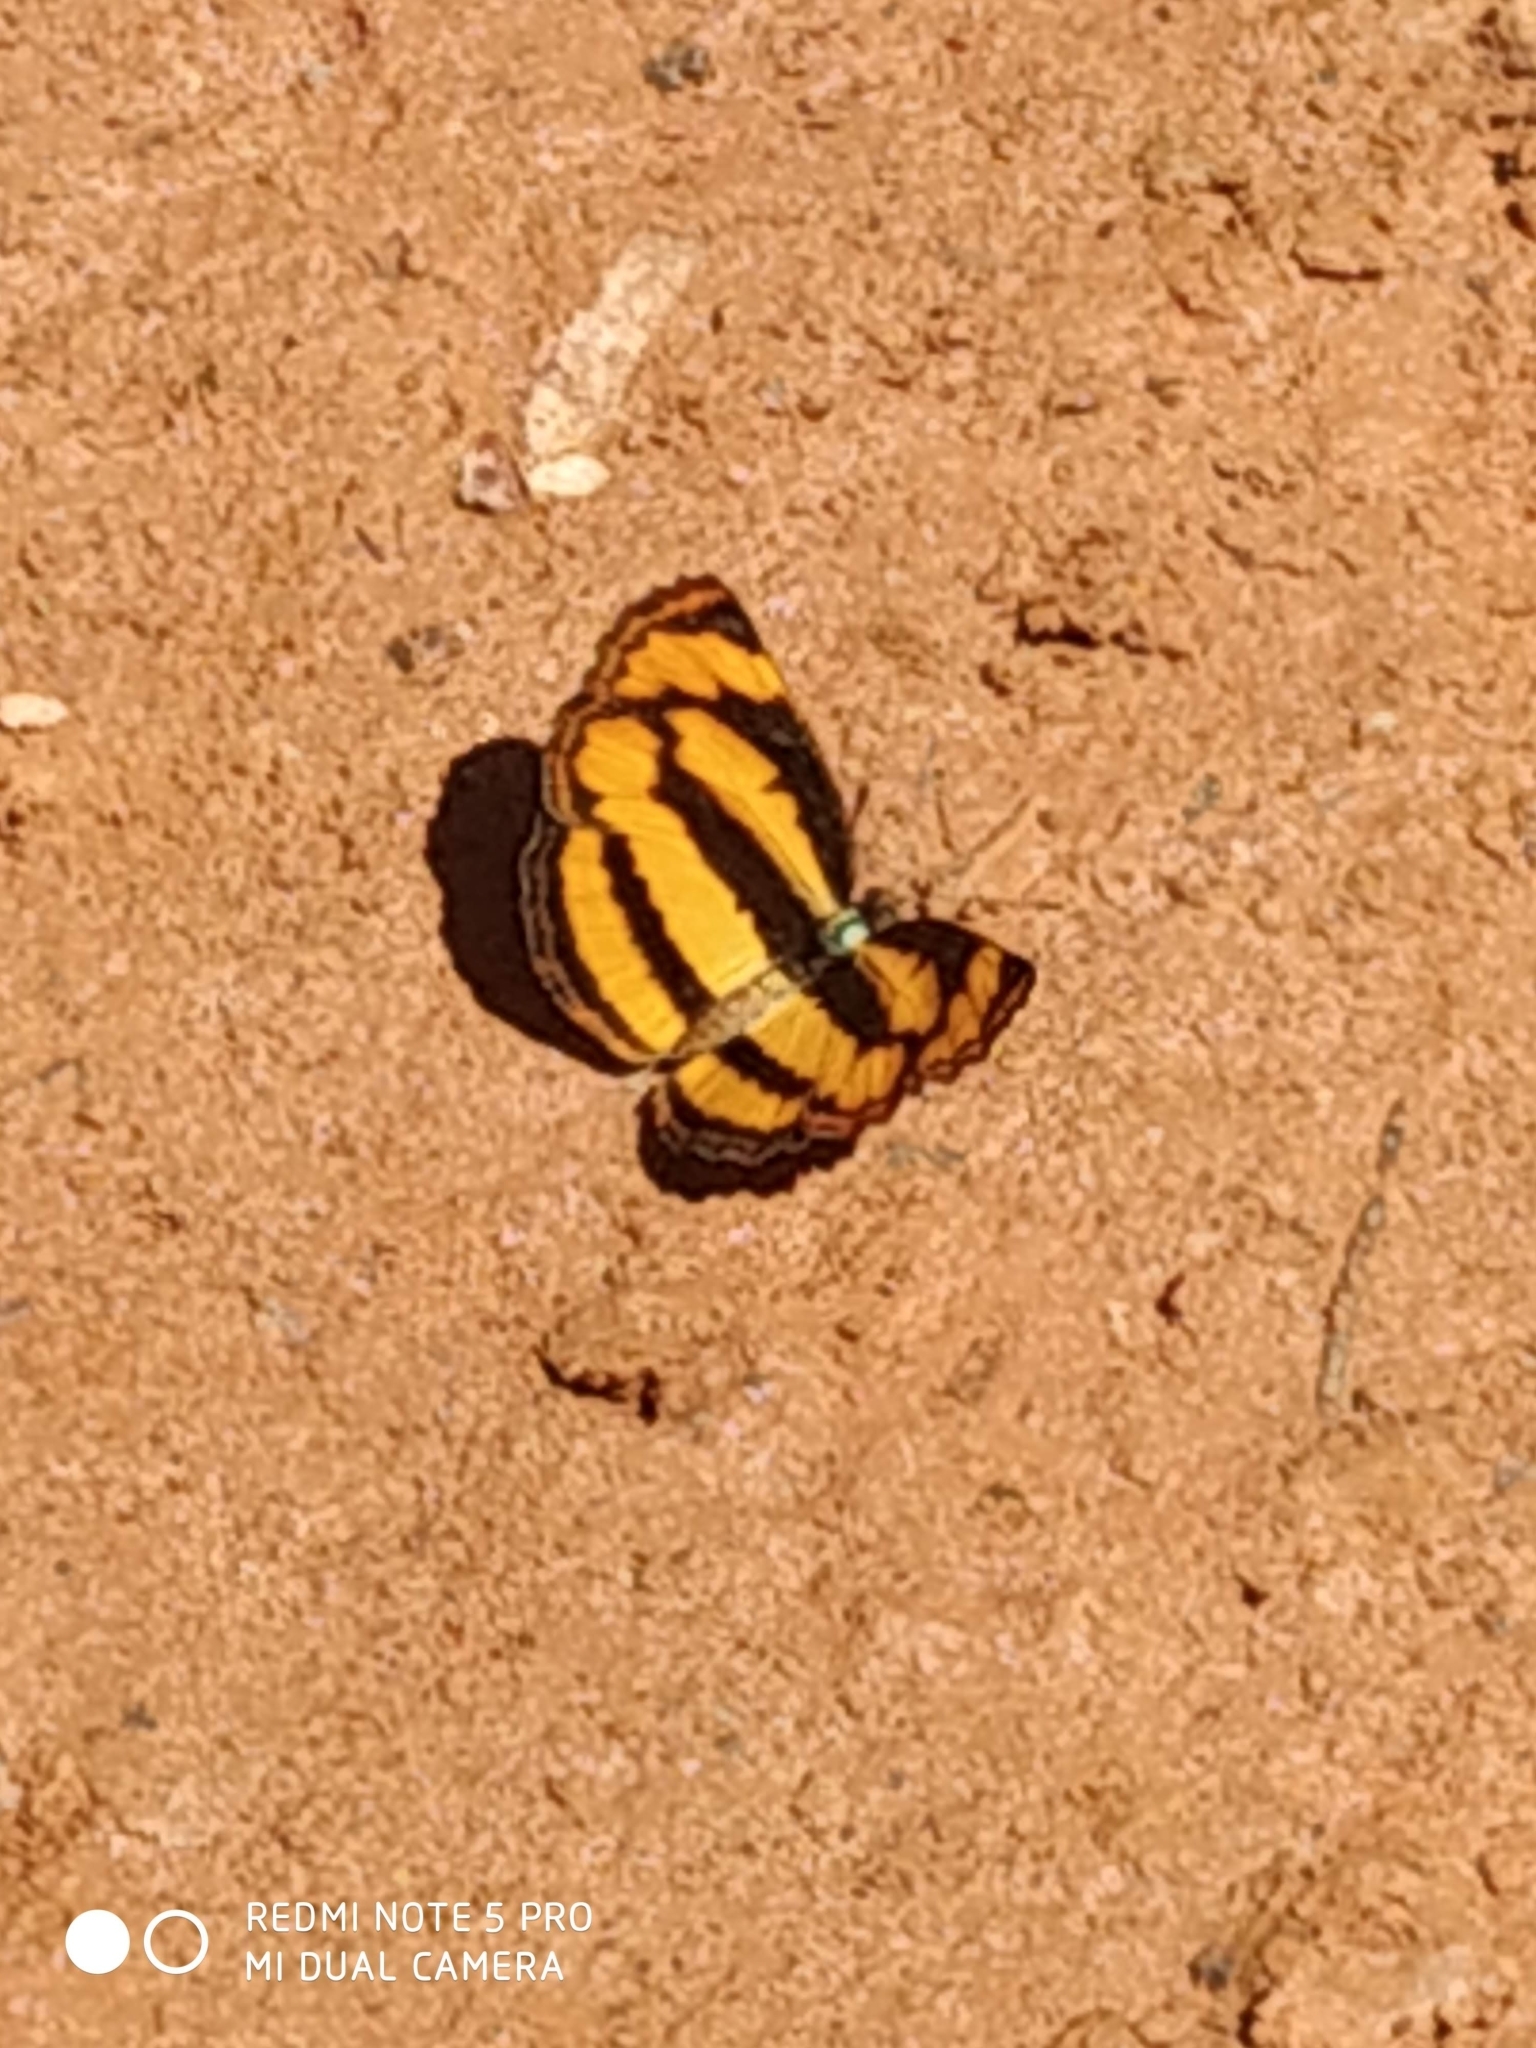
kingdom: Animalia
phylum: Arthropoda
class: Insecta
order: Lepidoptera
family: Nymphalidae
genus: Pantoporia
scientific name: Pantoporia hordonia
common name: Common lascar
